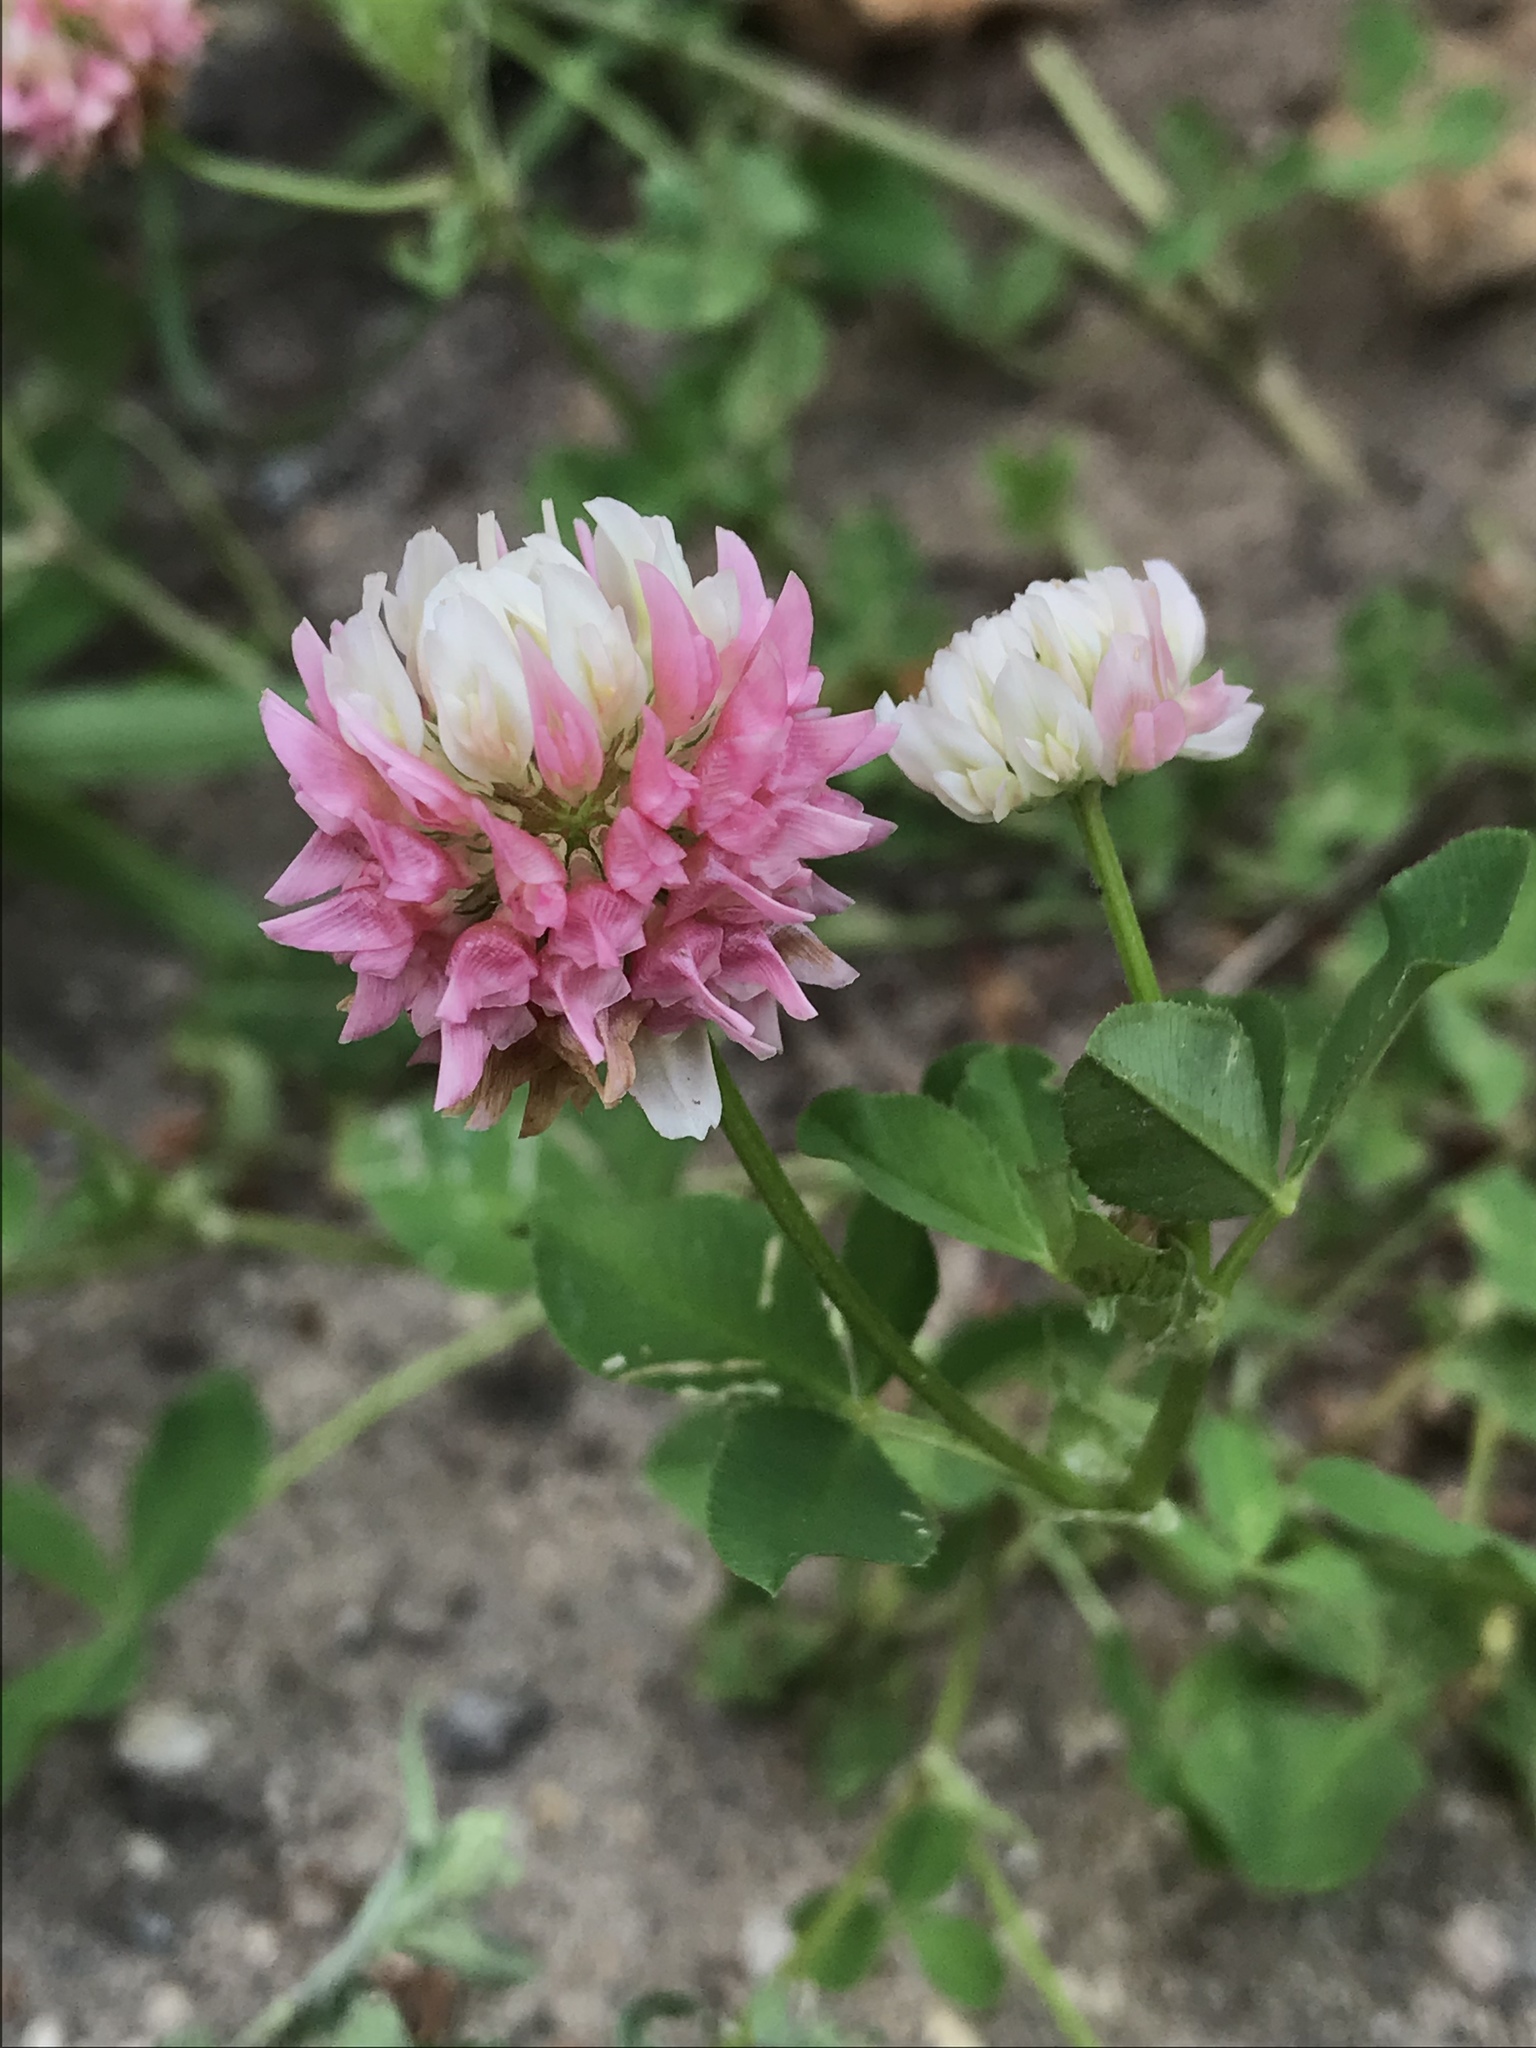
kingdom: Plantae
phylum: Tracheophyta
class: Magnoliopsida
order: Fabales
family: Fabaceae
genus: Trifolium
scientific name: Trifolium hybridum
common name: Alsike clover
